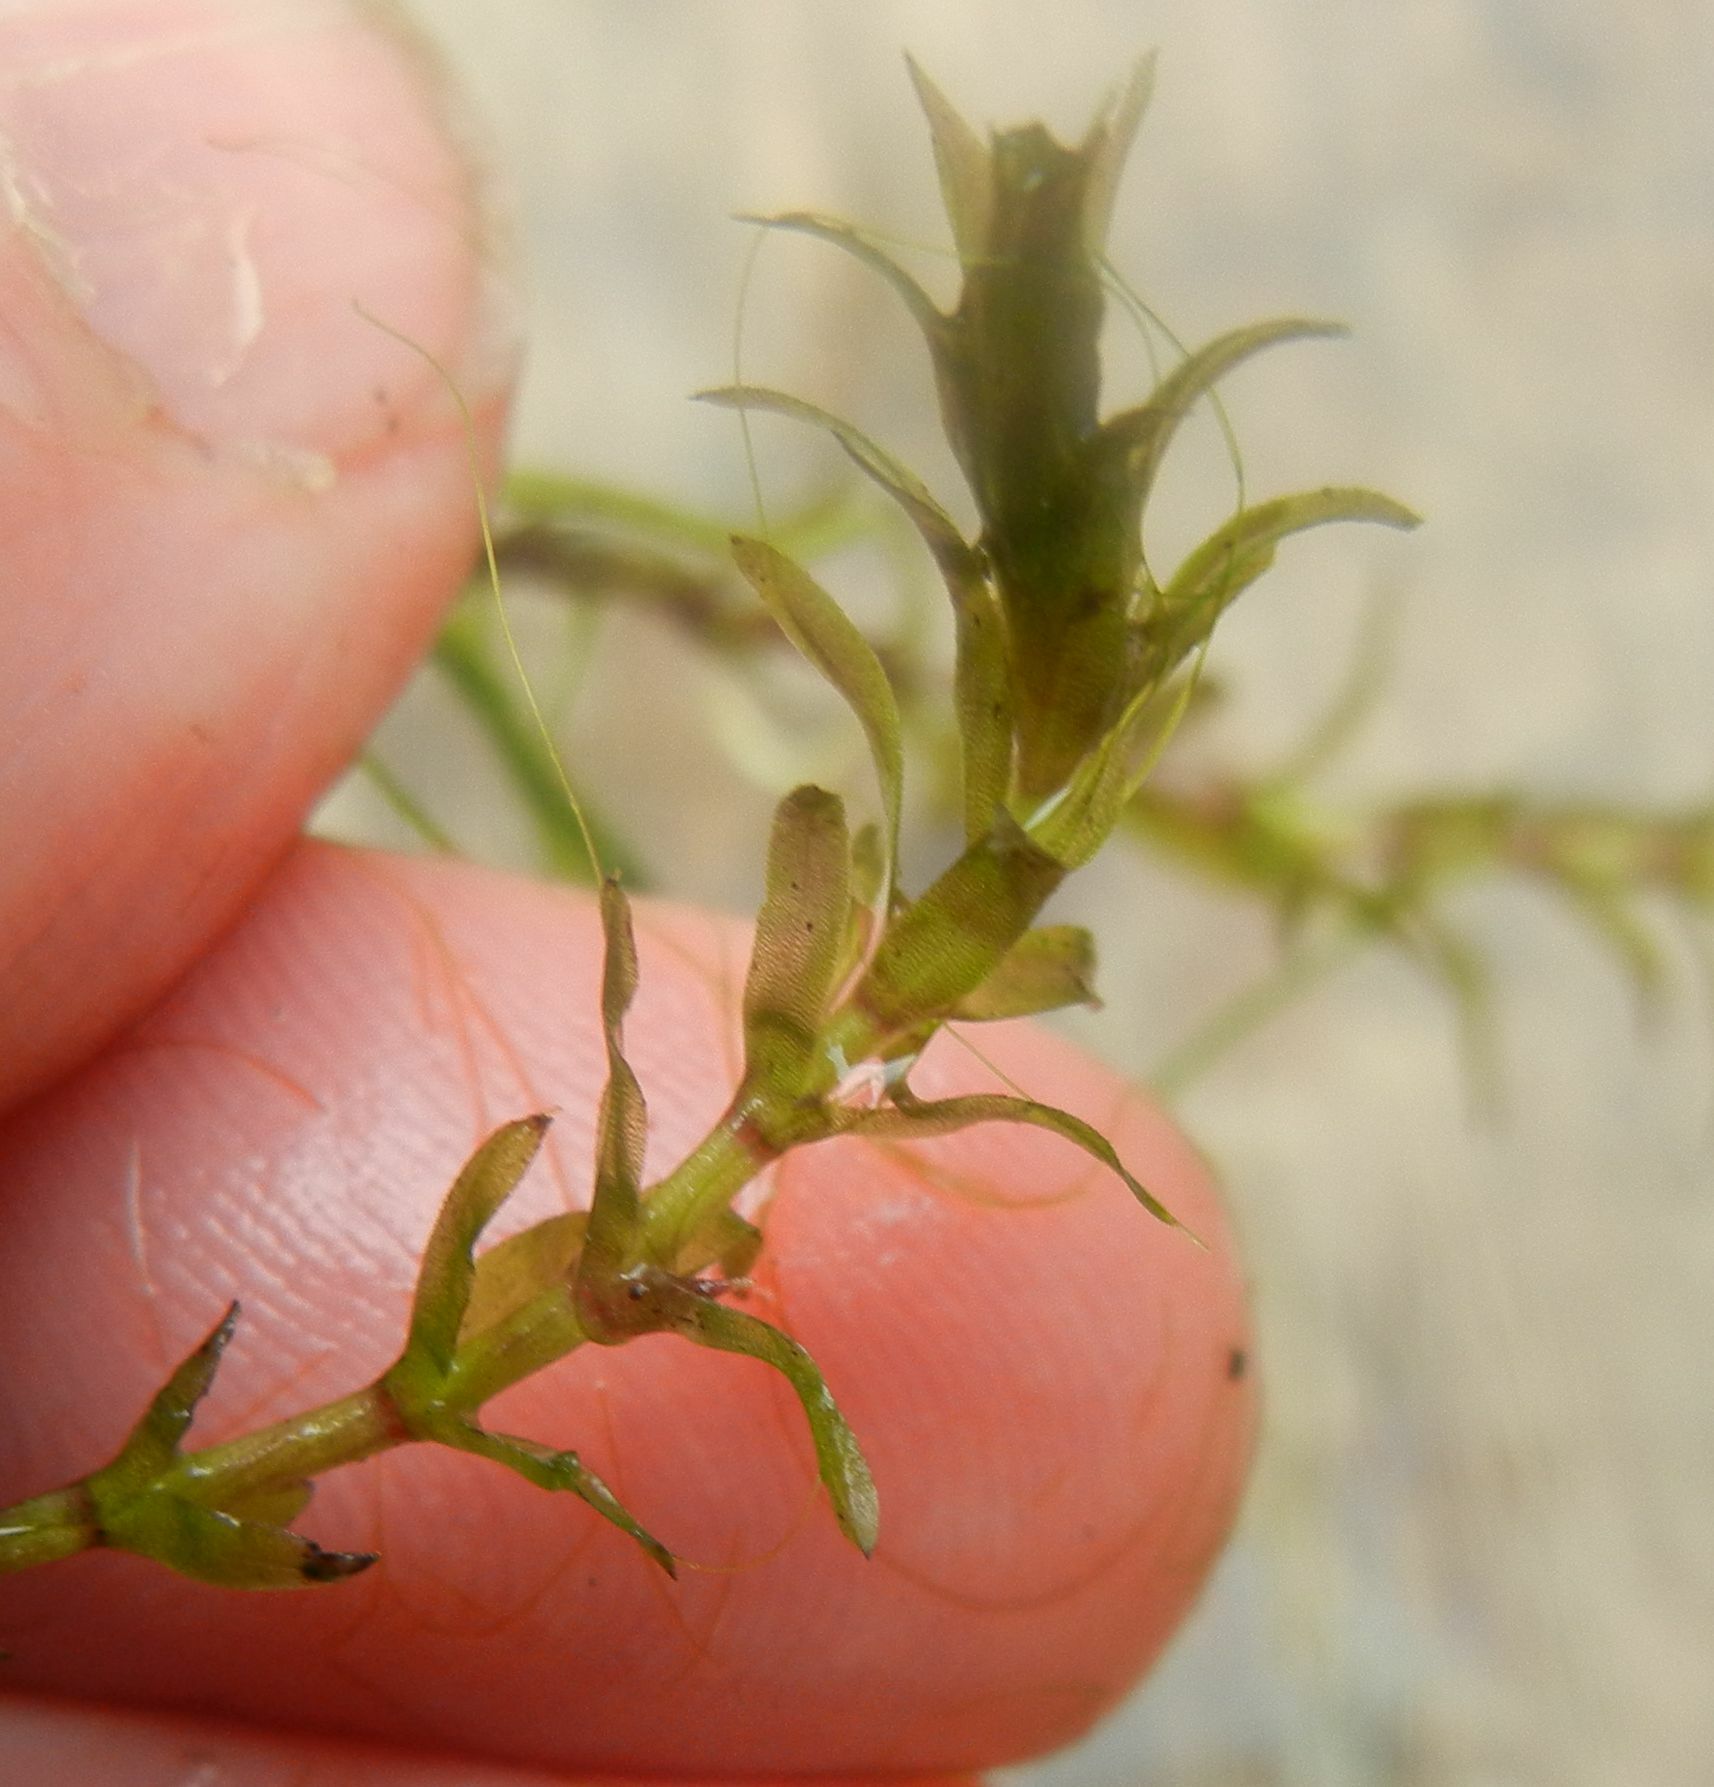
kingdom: Plantae
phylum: Tracheophyta
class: Liliopsida
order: Alismatales
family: Hydrocharitaceae
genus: Elodea
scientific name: Elodea canadensis
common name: Canadian waterweed
